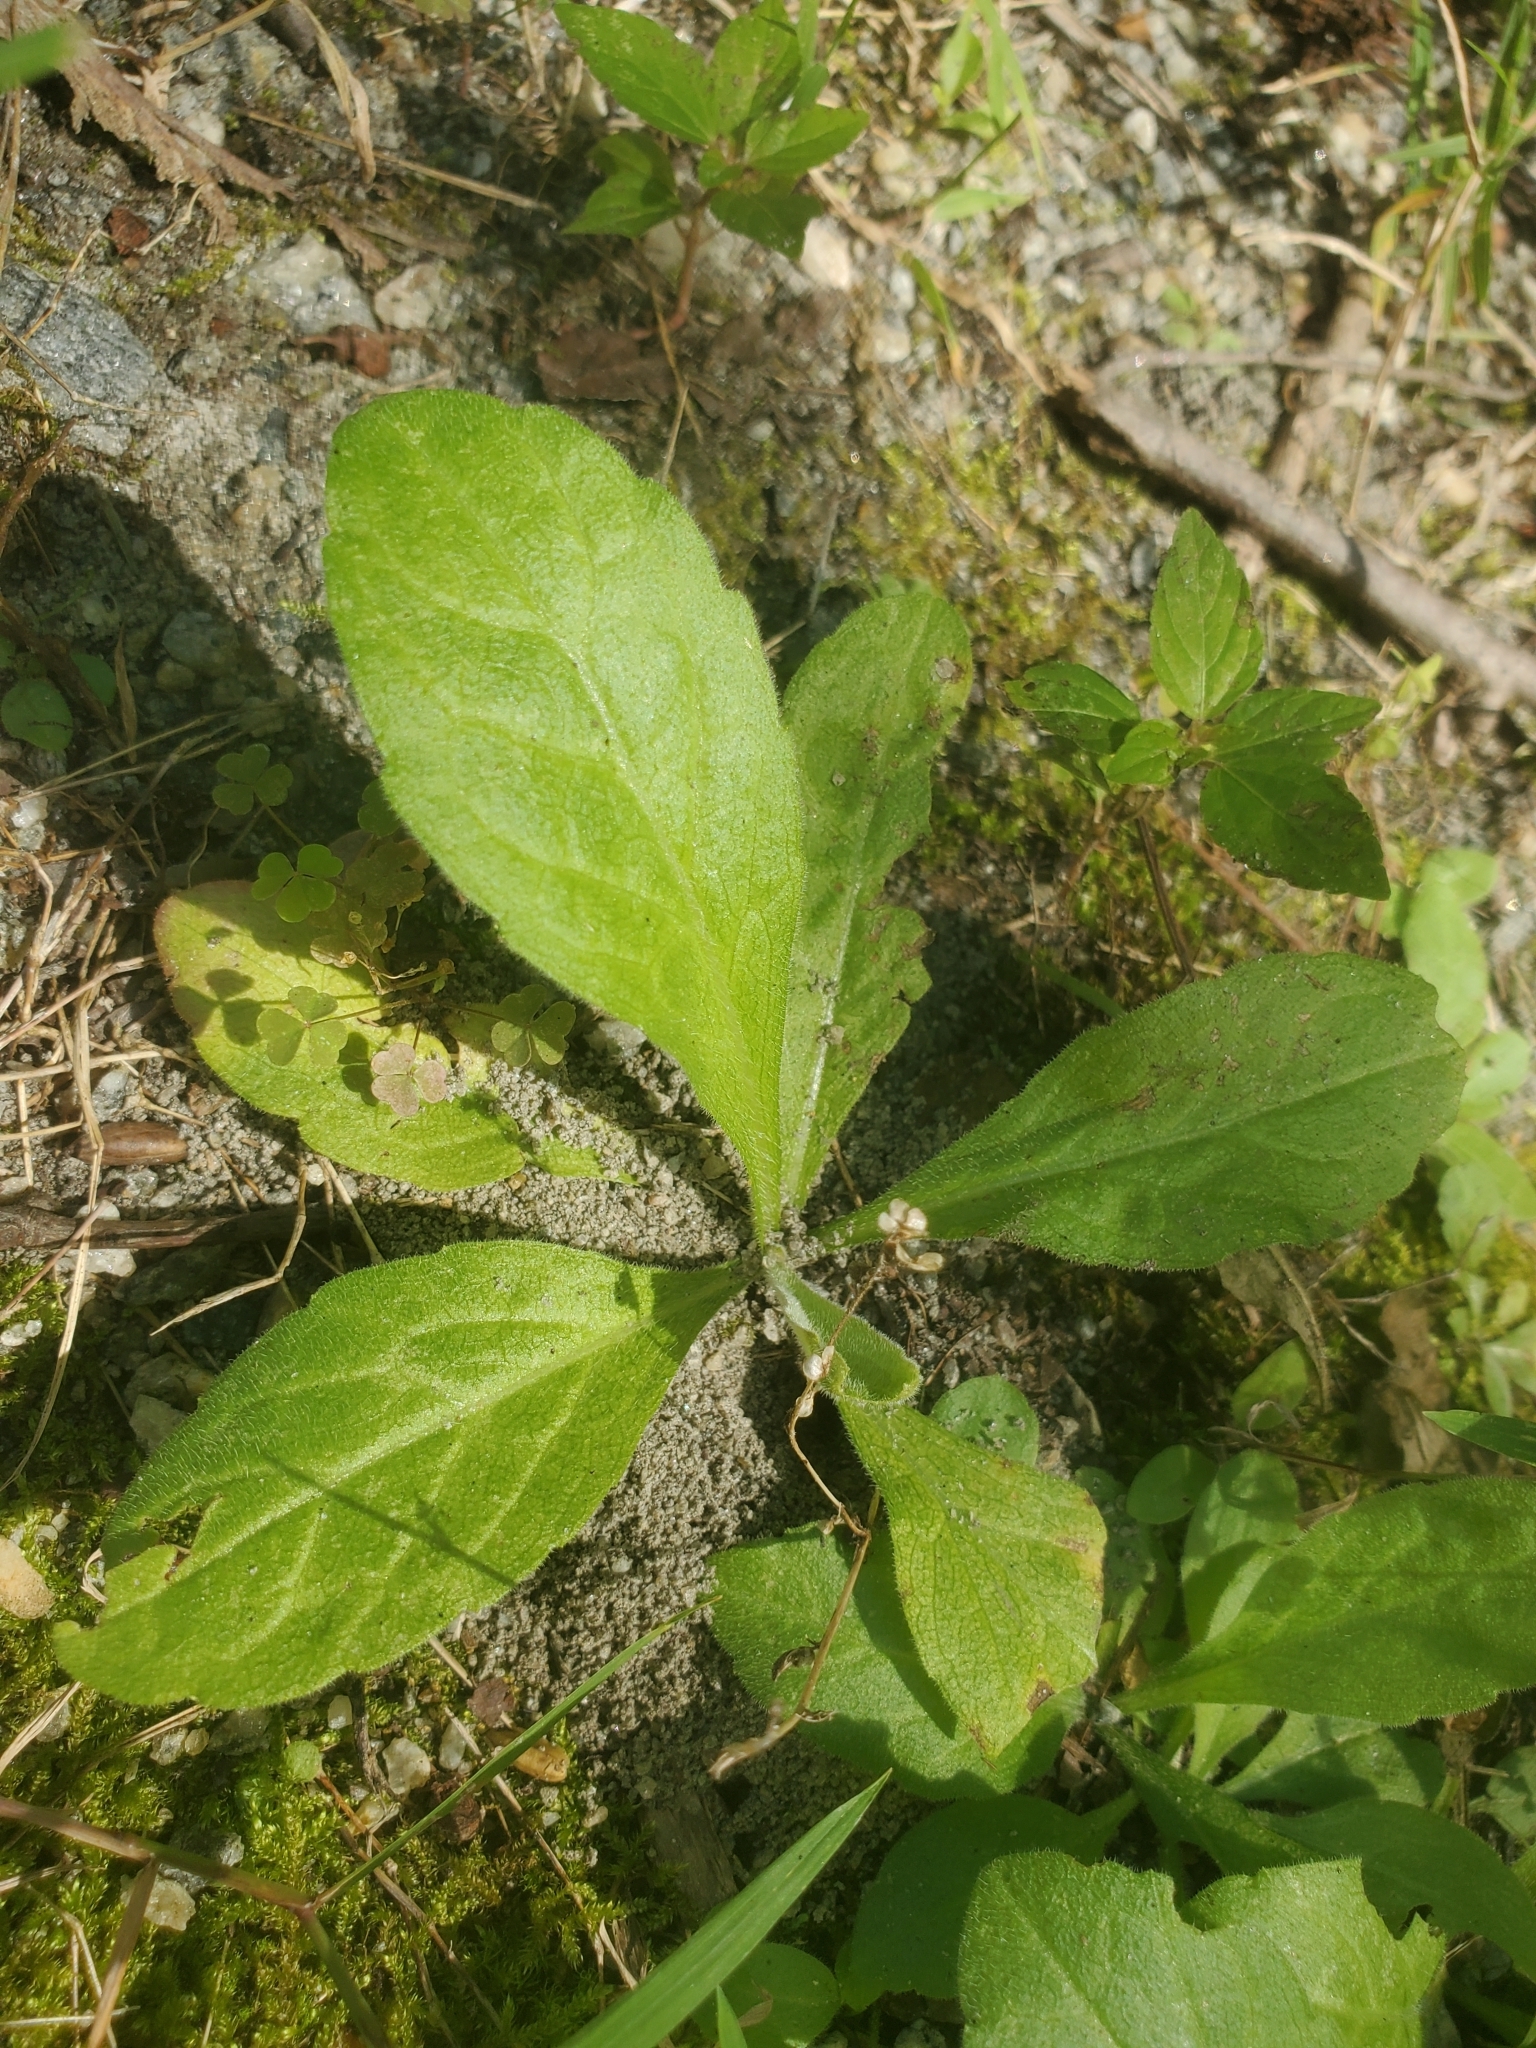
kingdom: Plantae
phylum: Tracheophyta
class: Magnoliopsida
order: Asterales
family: Asteraceae
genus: Erigeron
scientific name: Erigeron philadelphicus
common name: Robin's-plantain
